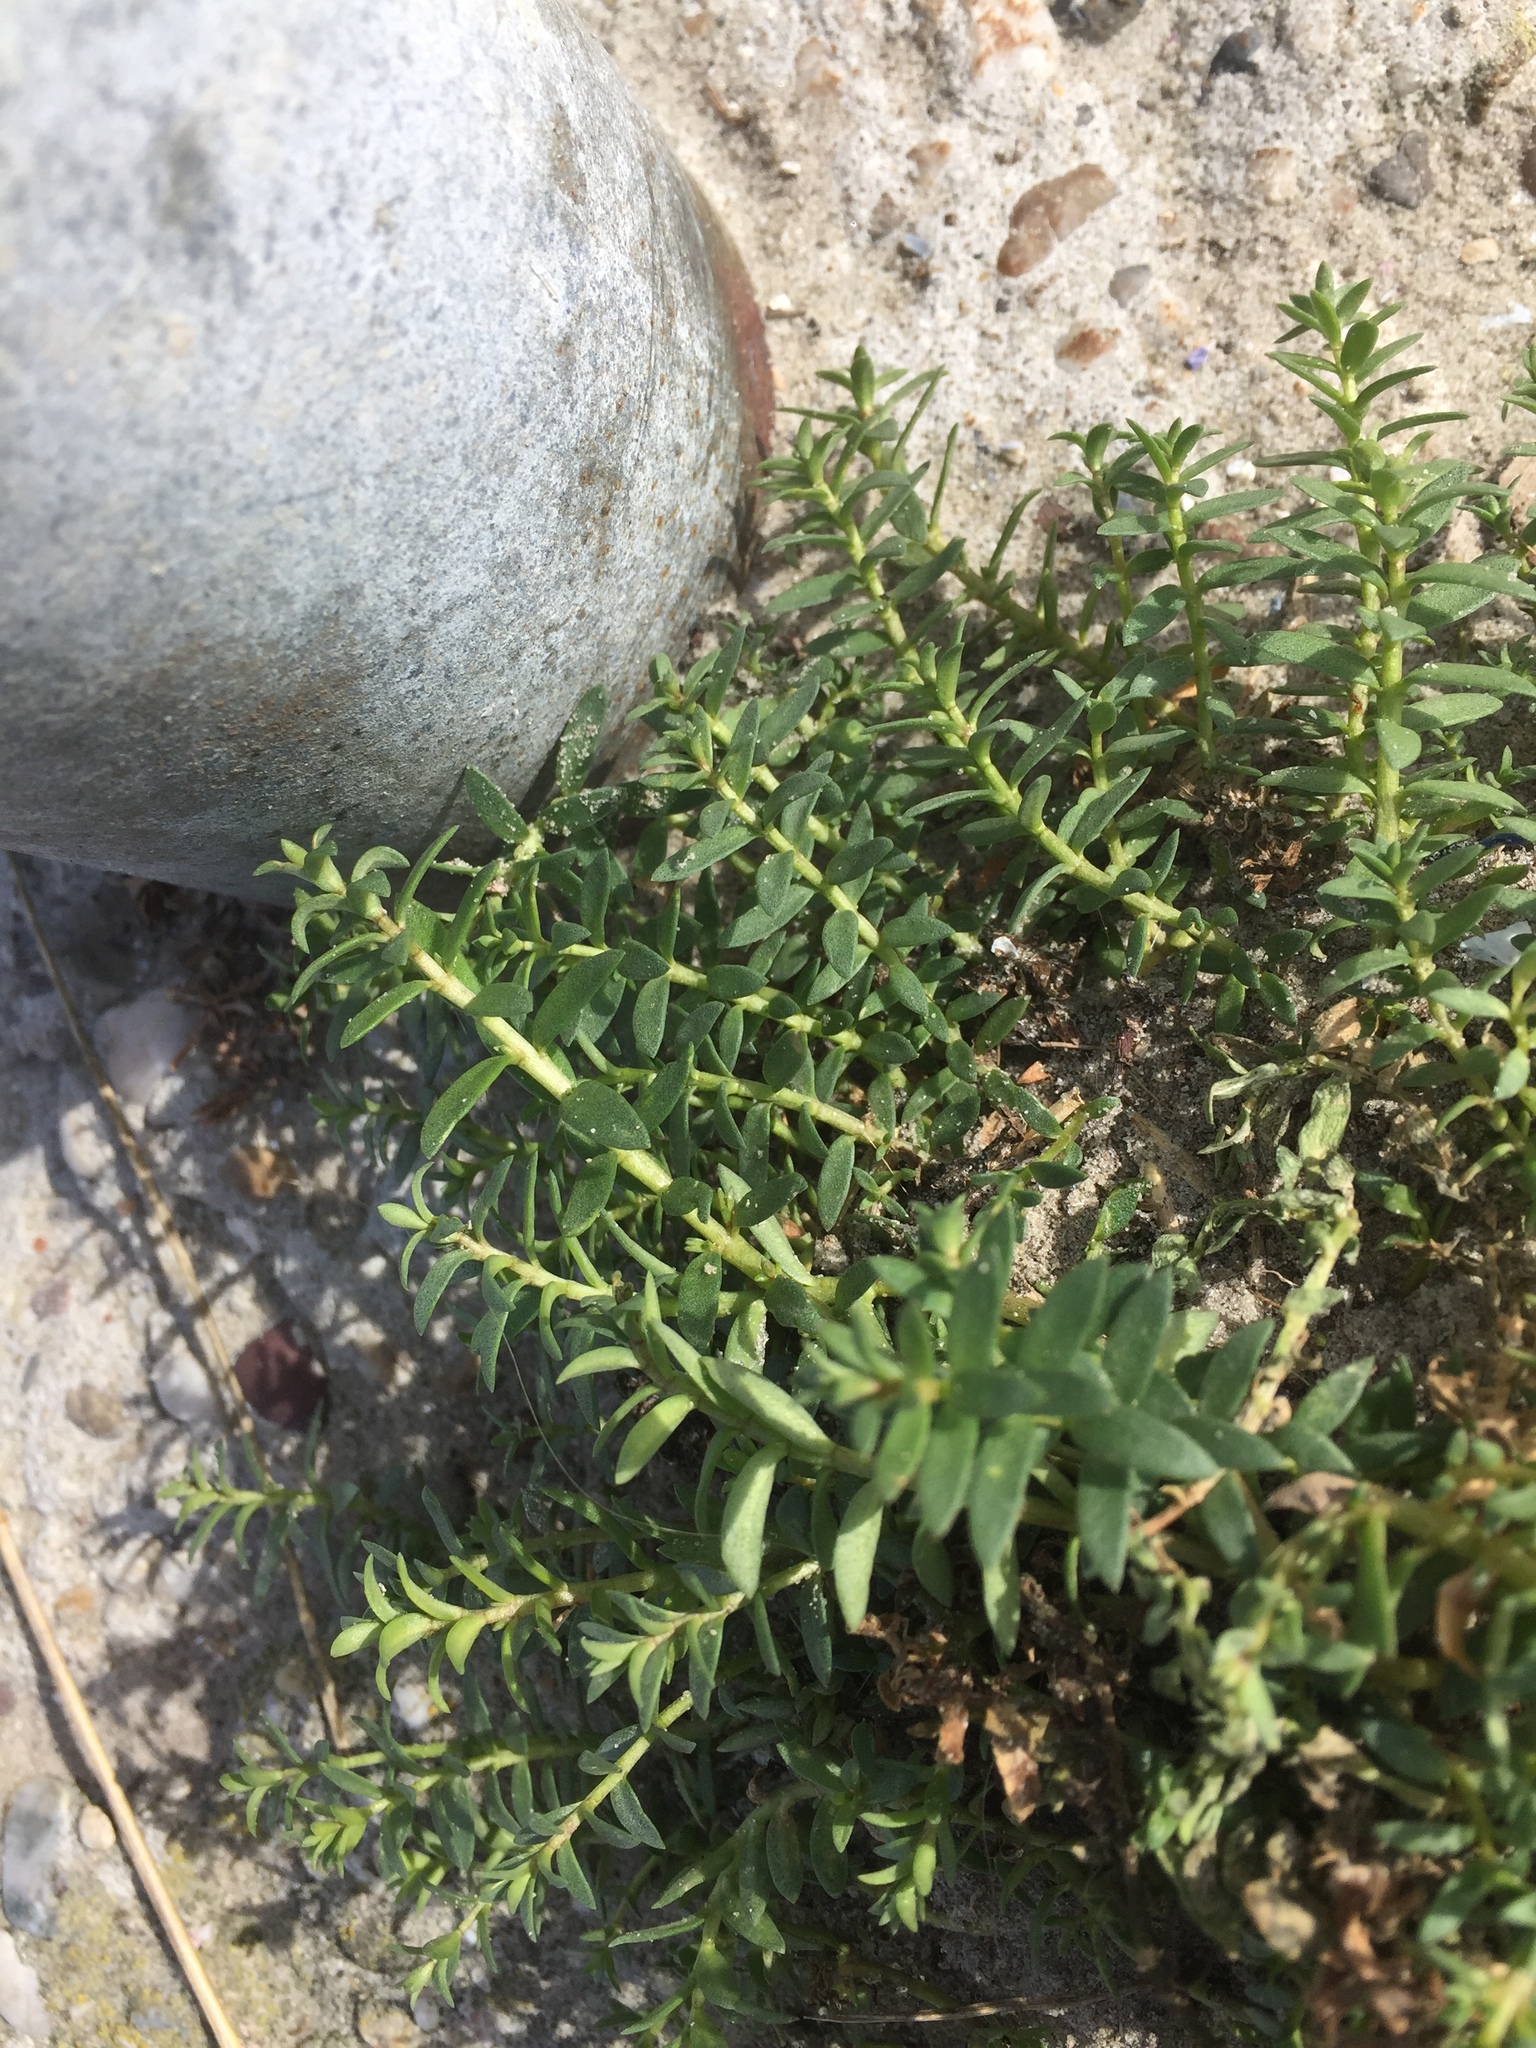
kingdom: Plantae
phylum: Tracheophyta
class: Magnoliopsida
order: Ericales
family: Primulaceae
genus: Lysimachia
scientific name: Lysimachia maritima
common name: Sea milkwort
